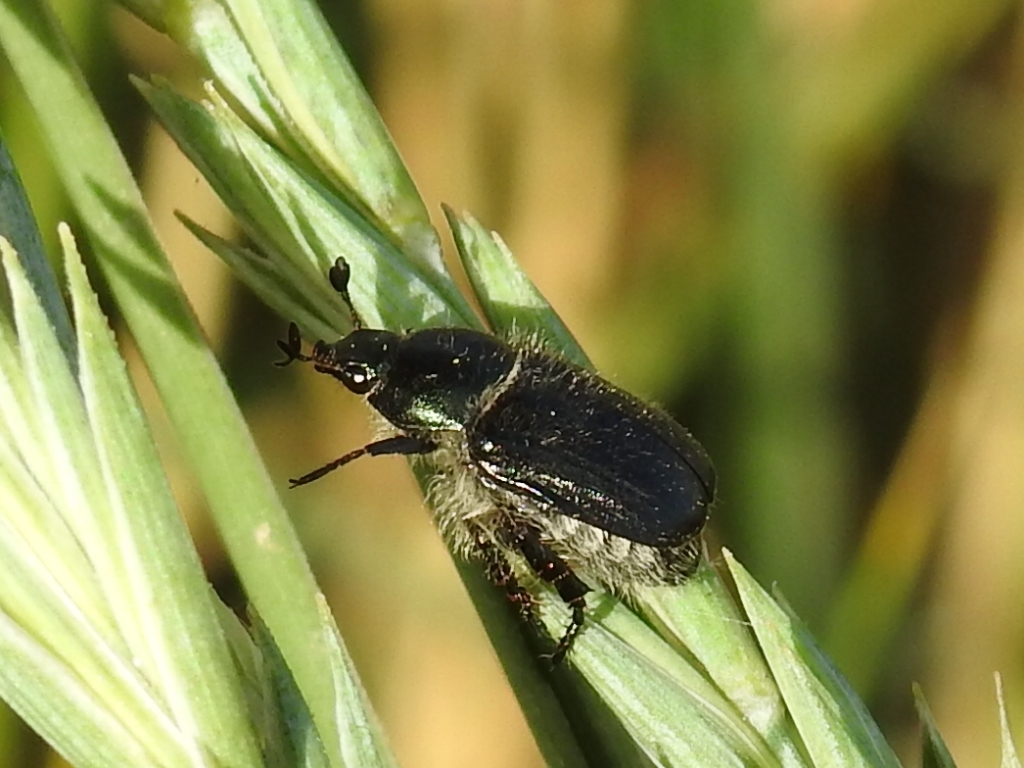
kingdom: Animalia
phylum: Arthropoda
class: Insecta
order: Coleoptera
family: Scarabaeidae
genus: Anisoplia
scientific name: Anisoplia tempestiva
